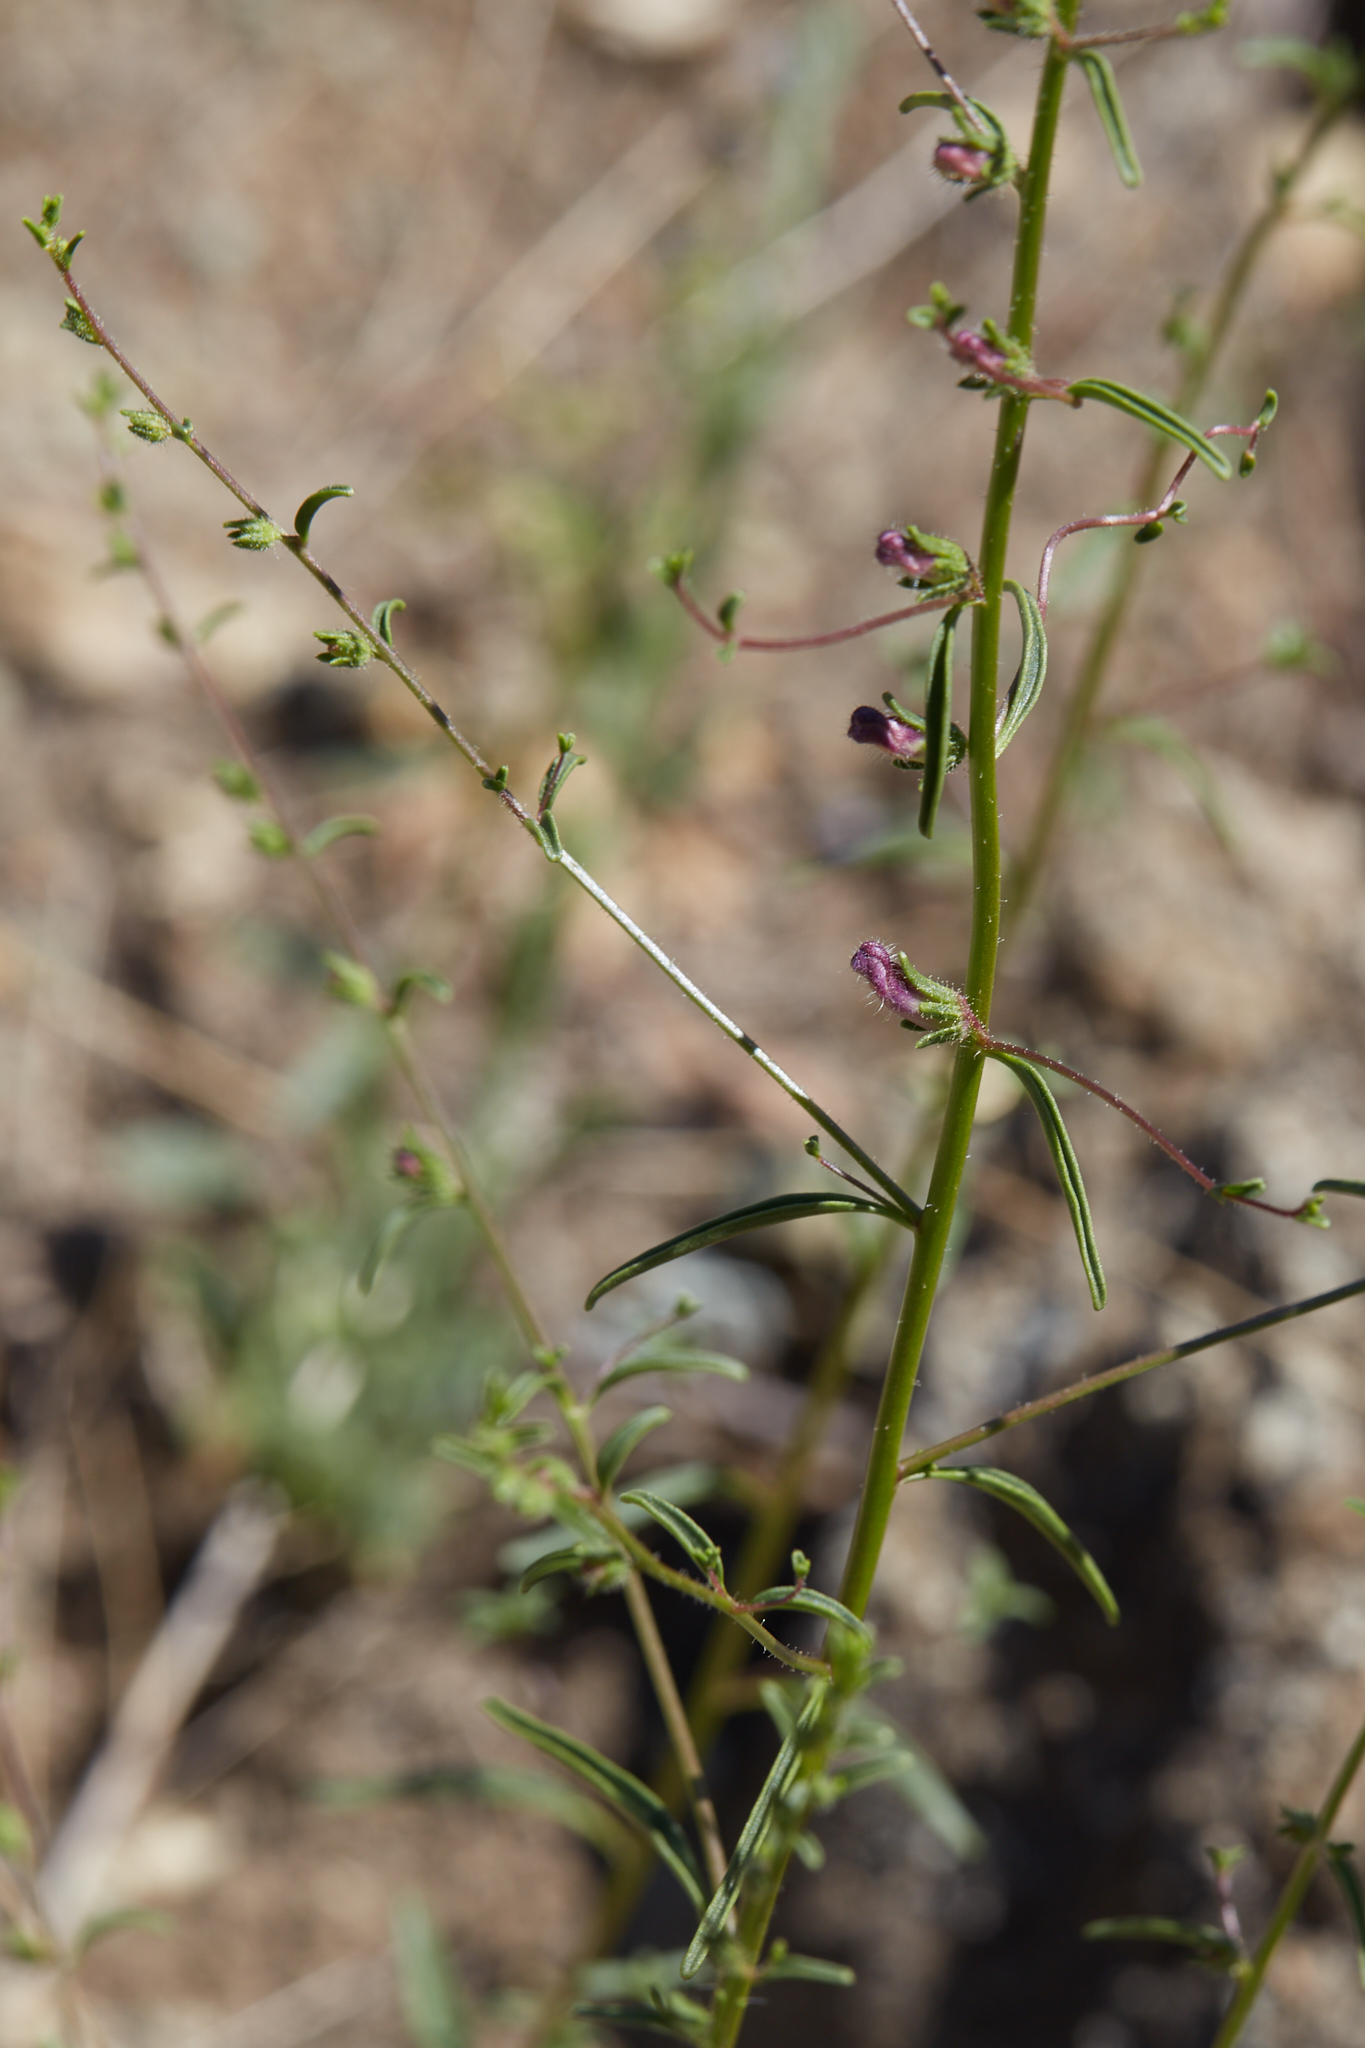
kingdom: Plantae
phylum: Tracheophyta
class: Magnoliopsida
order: Lamiales
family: Plantaginaceae
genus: Sairocarpus
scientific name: Sairocarpus vexillocalyculatus
